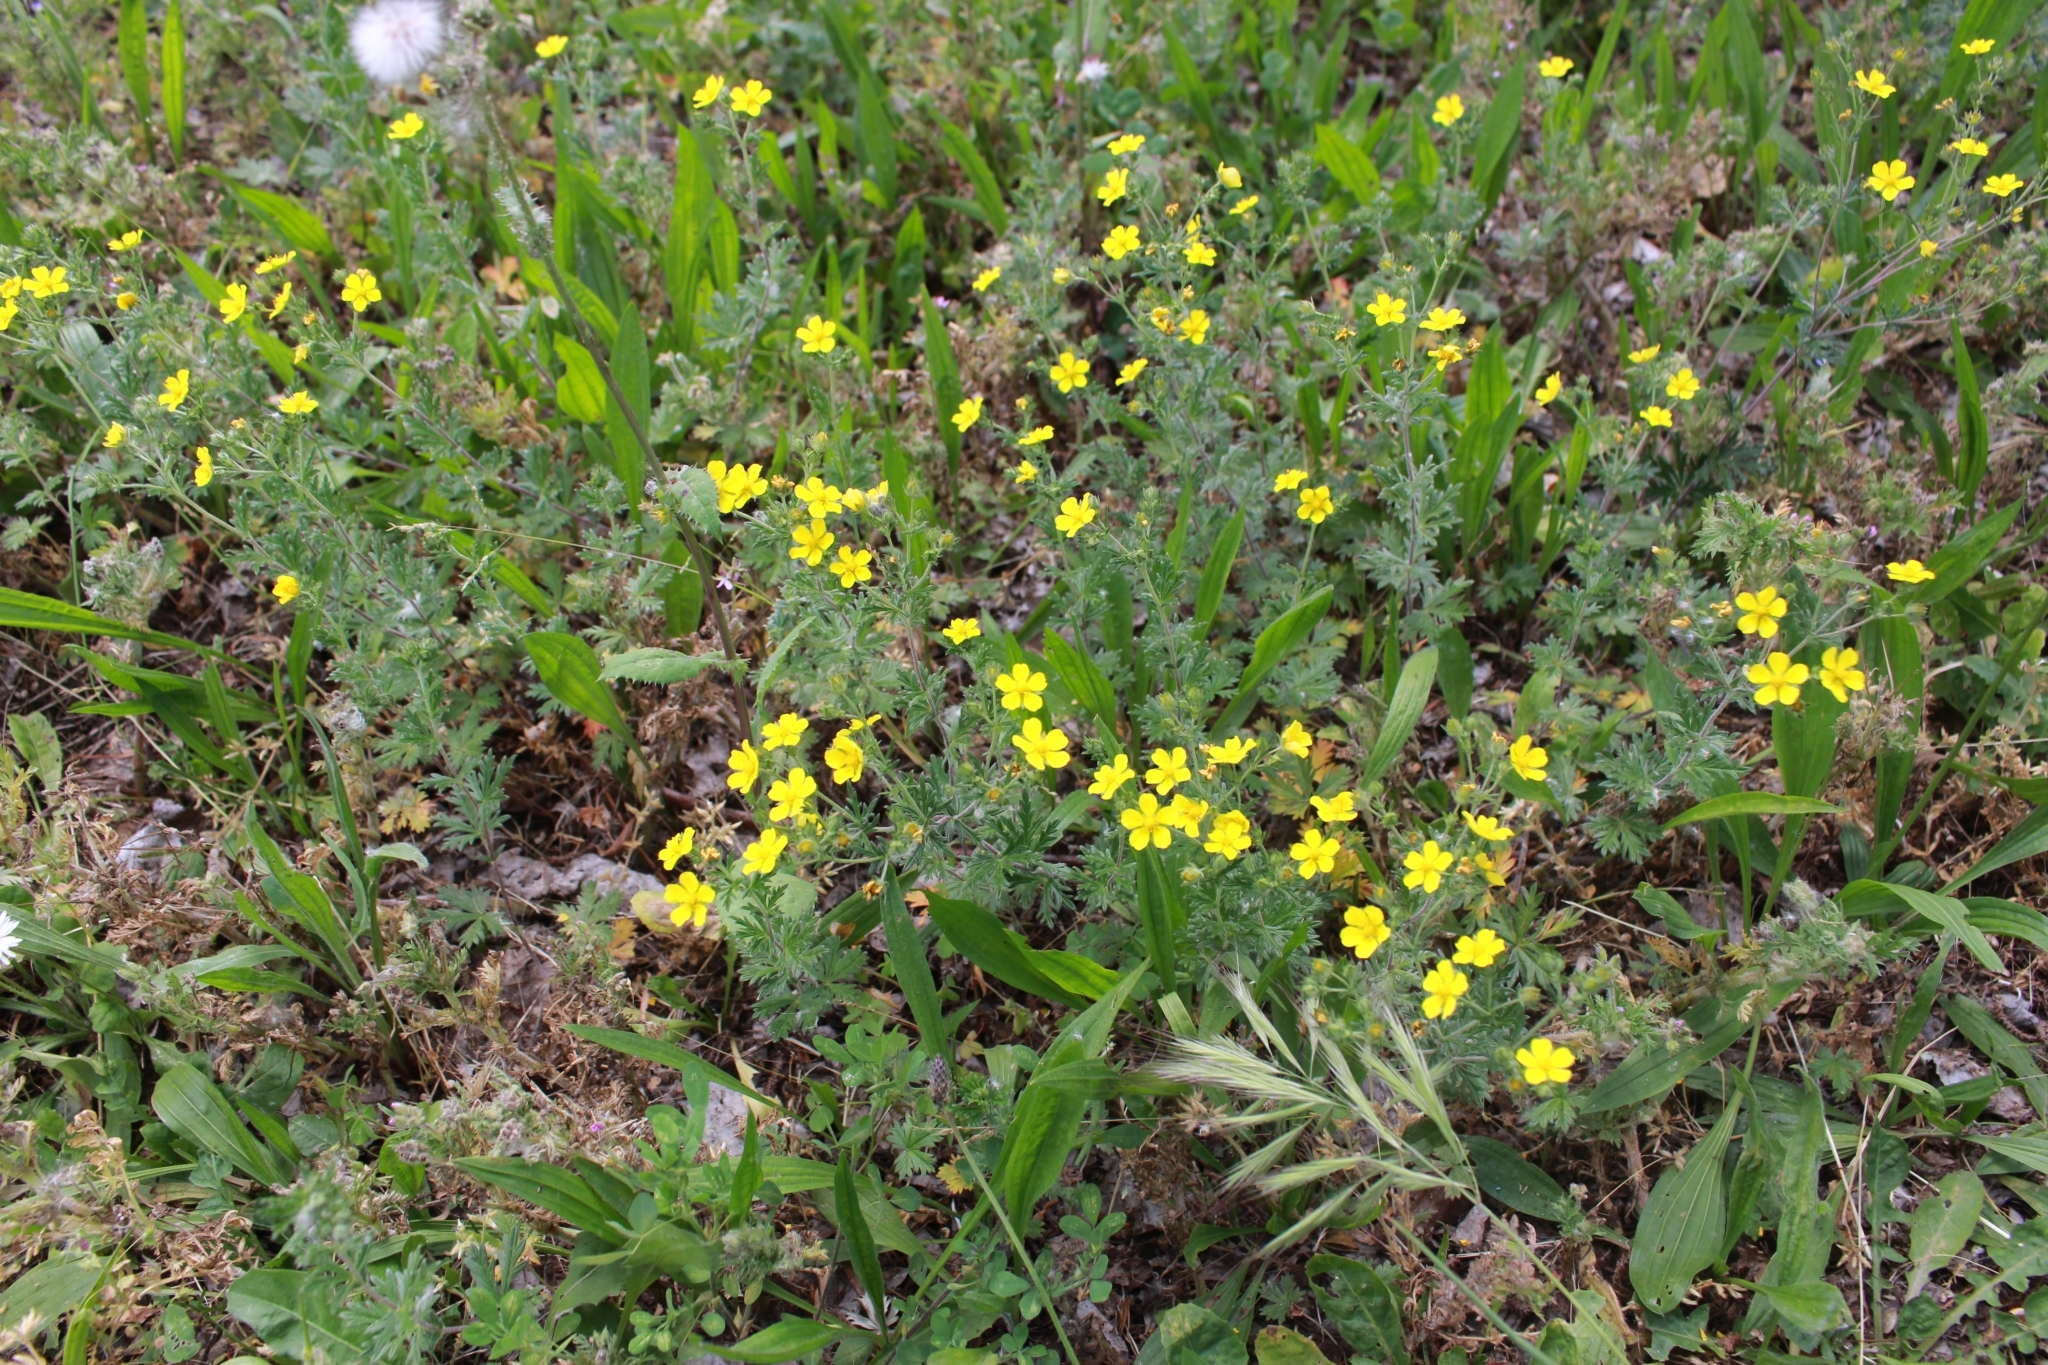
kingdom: Plantae
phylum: Tracheophyta
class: Magnoliopsida
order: Rosales
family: Rosaceae
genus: Potentilla
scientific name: Potentilla neglecta
